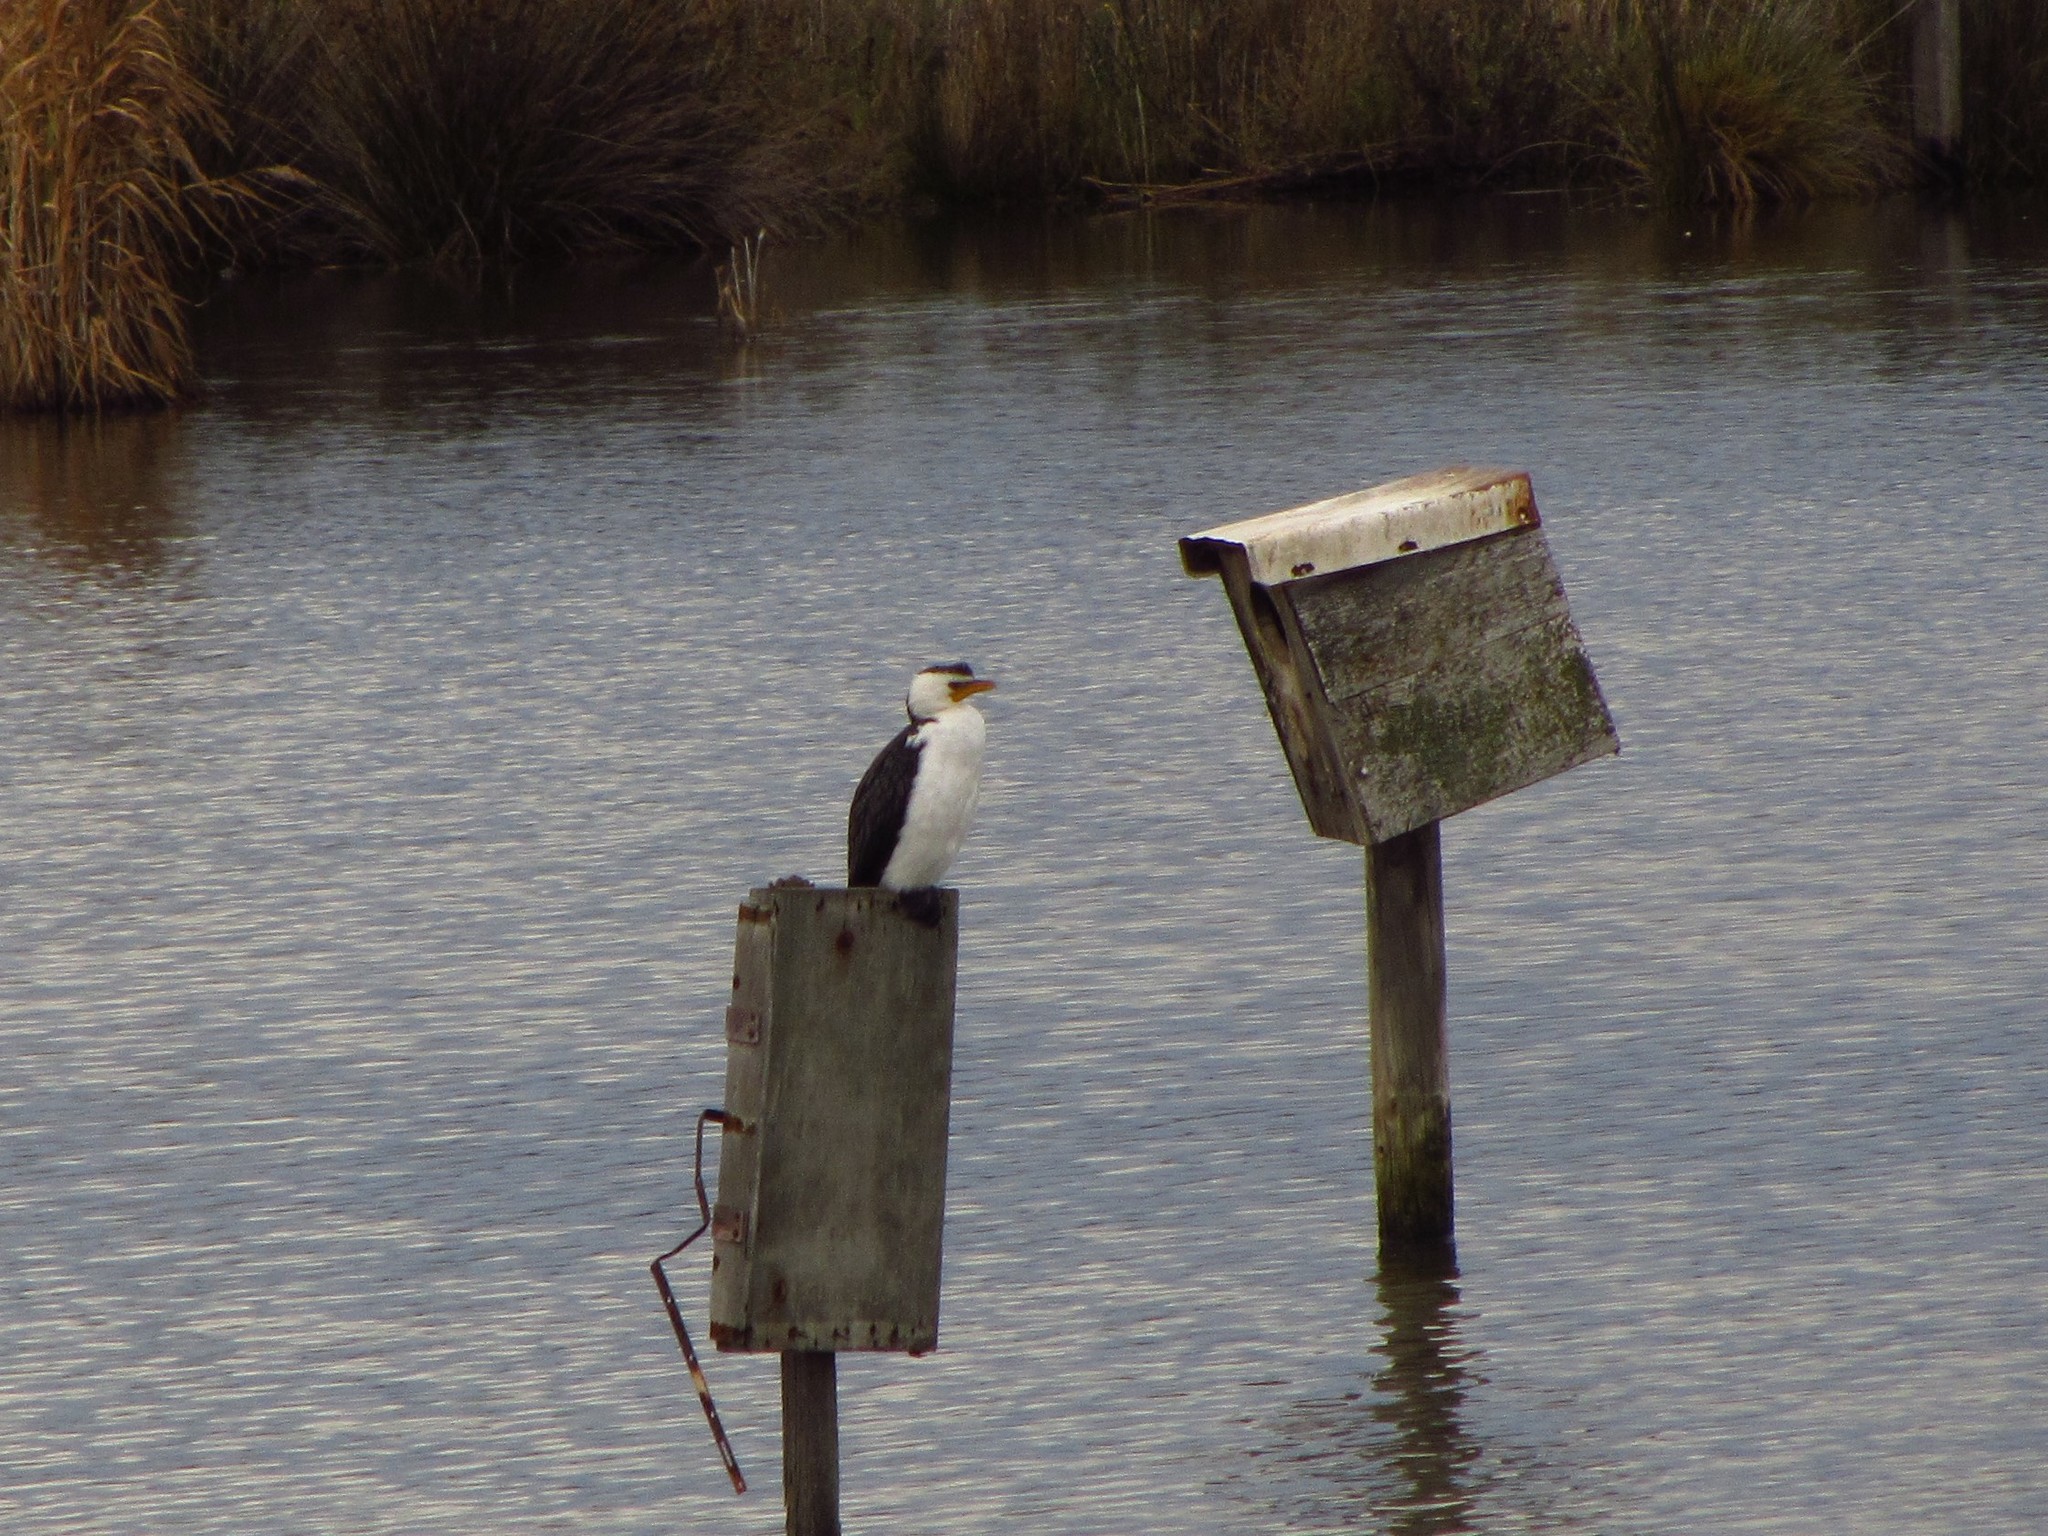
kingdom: Animalia
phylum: Chordata
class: Aves
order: Suliformes
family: Phalacrocoracidae
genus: Microcarbo
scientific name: Microcarbo melanoleucos
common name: Little pied cormorant
